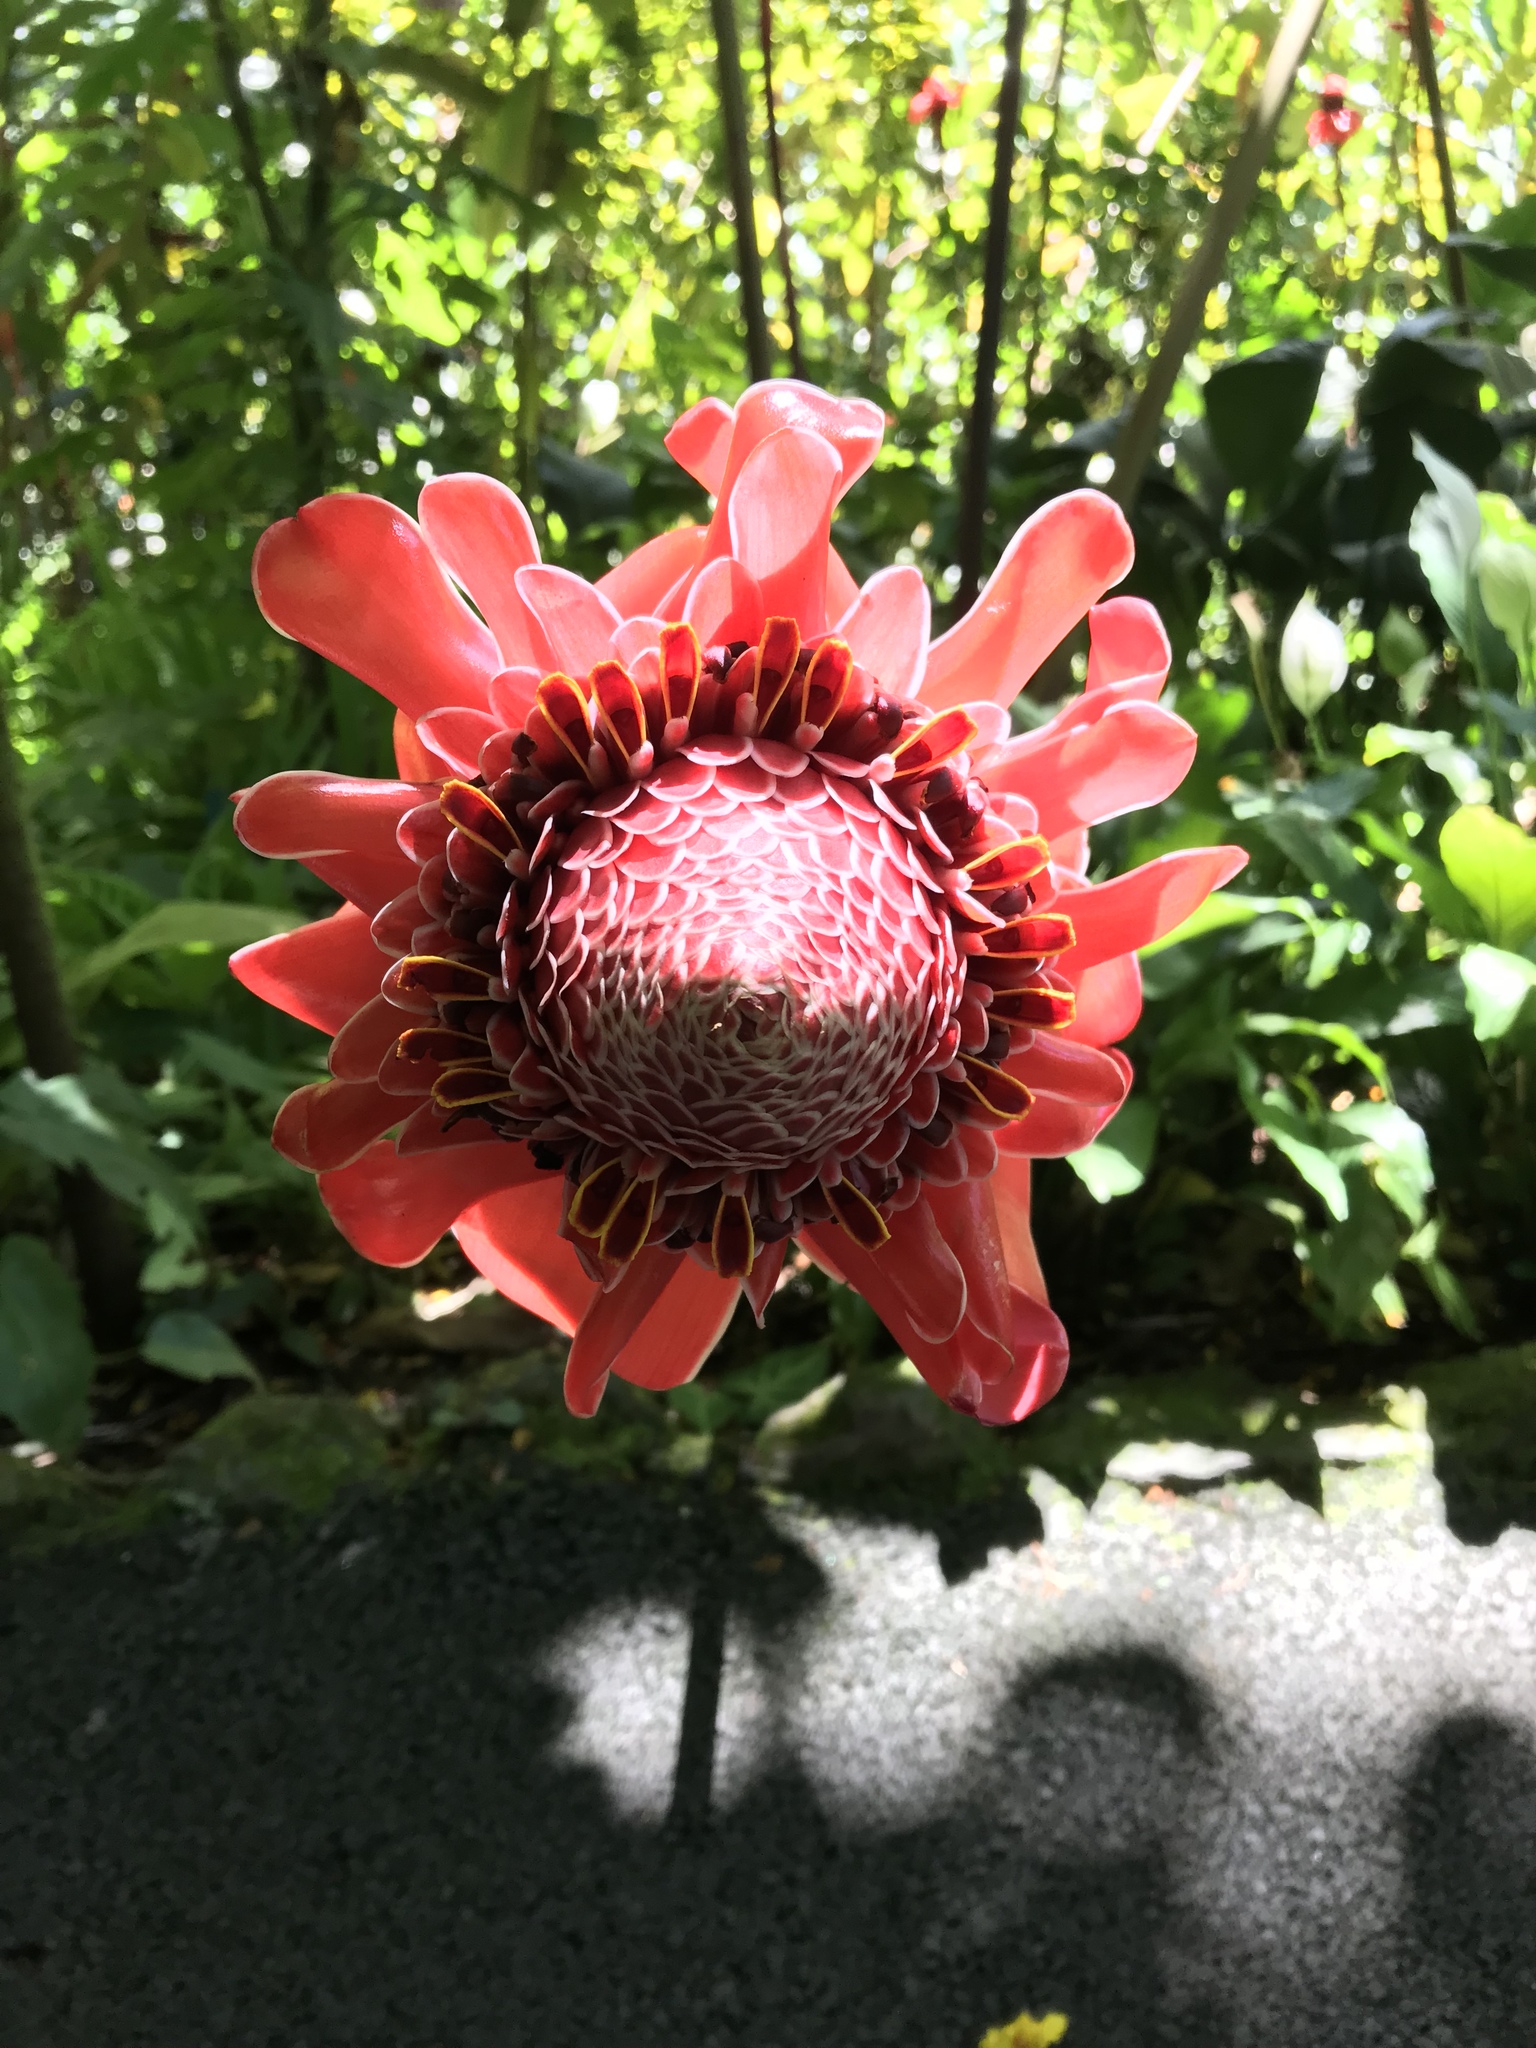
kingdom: Plantae
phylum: Tracheophyta
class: Liliopsida
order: Zingiberales
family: Zingiberaceae
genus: Etlingera
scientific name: Etlingera elatior
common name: Philippine waxflower
